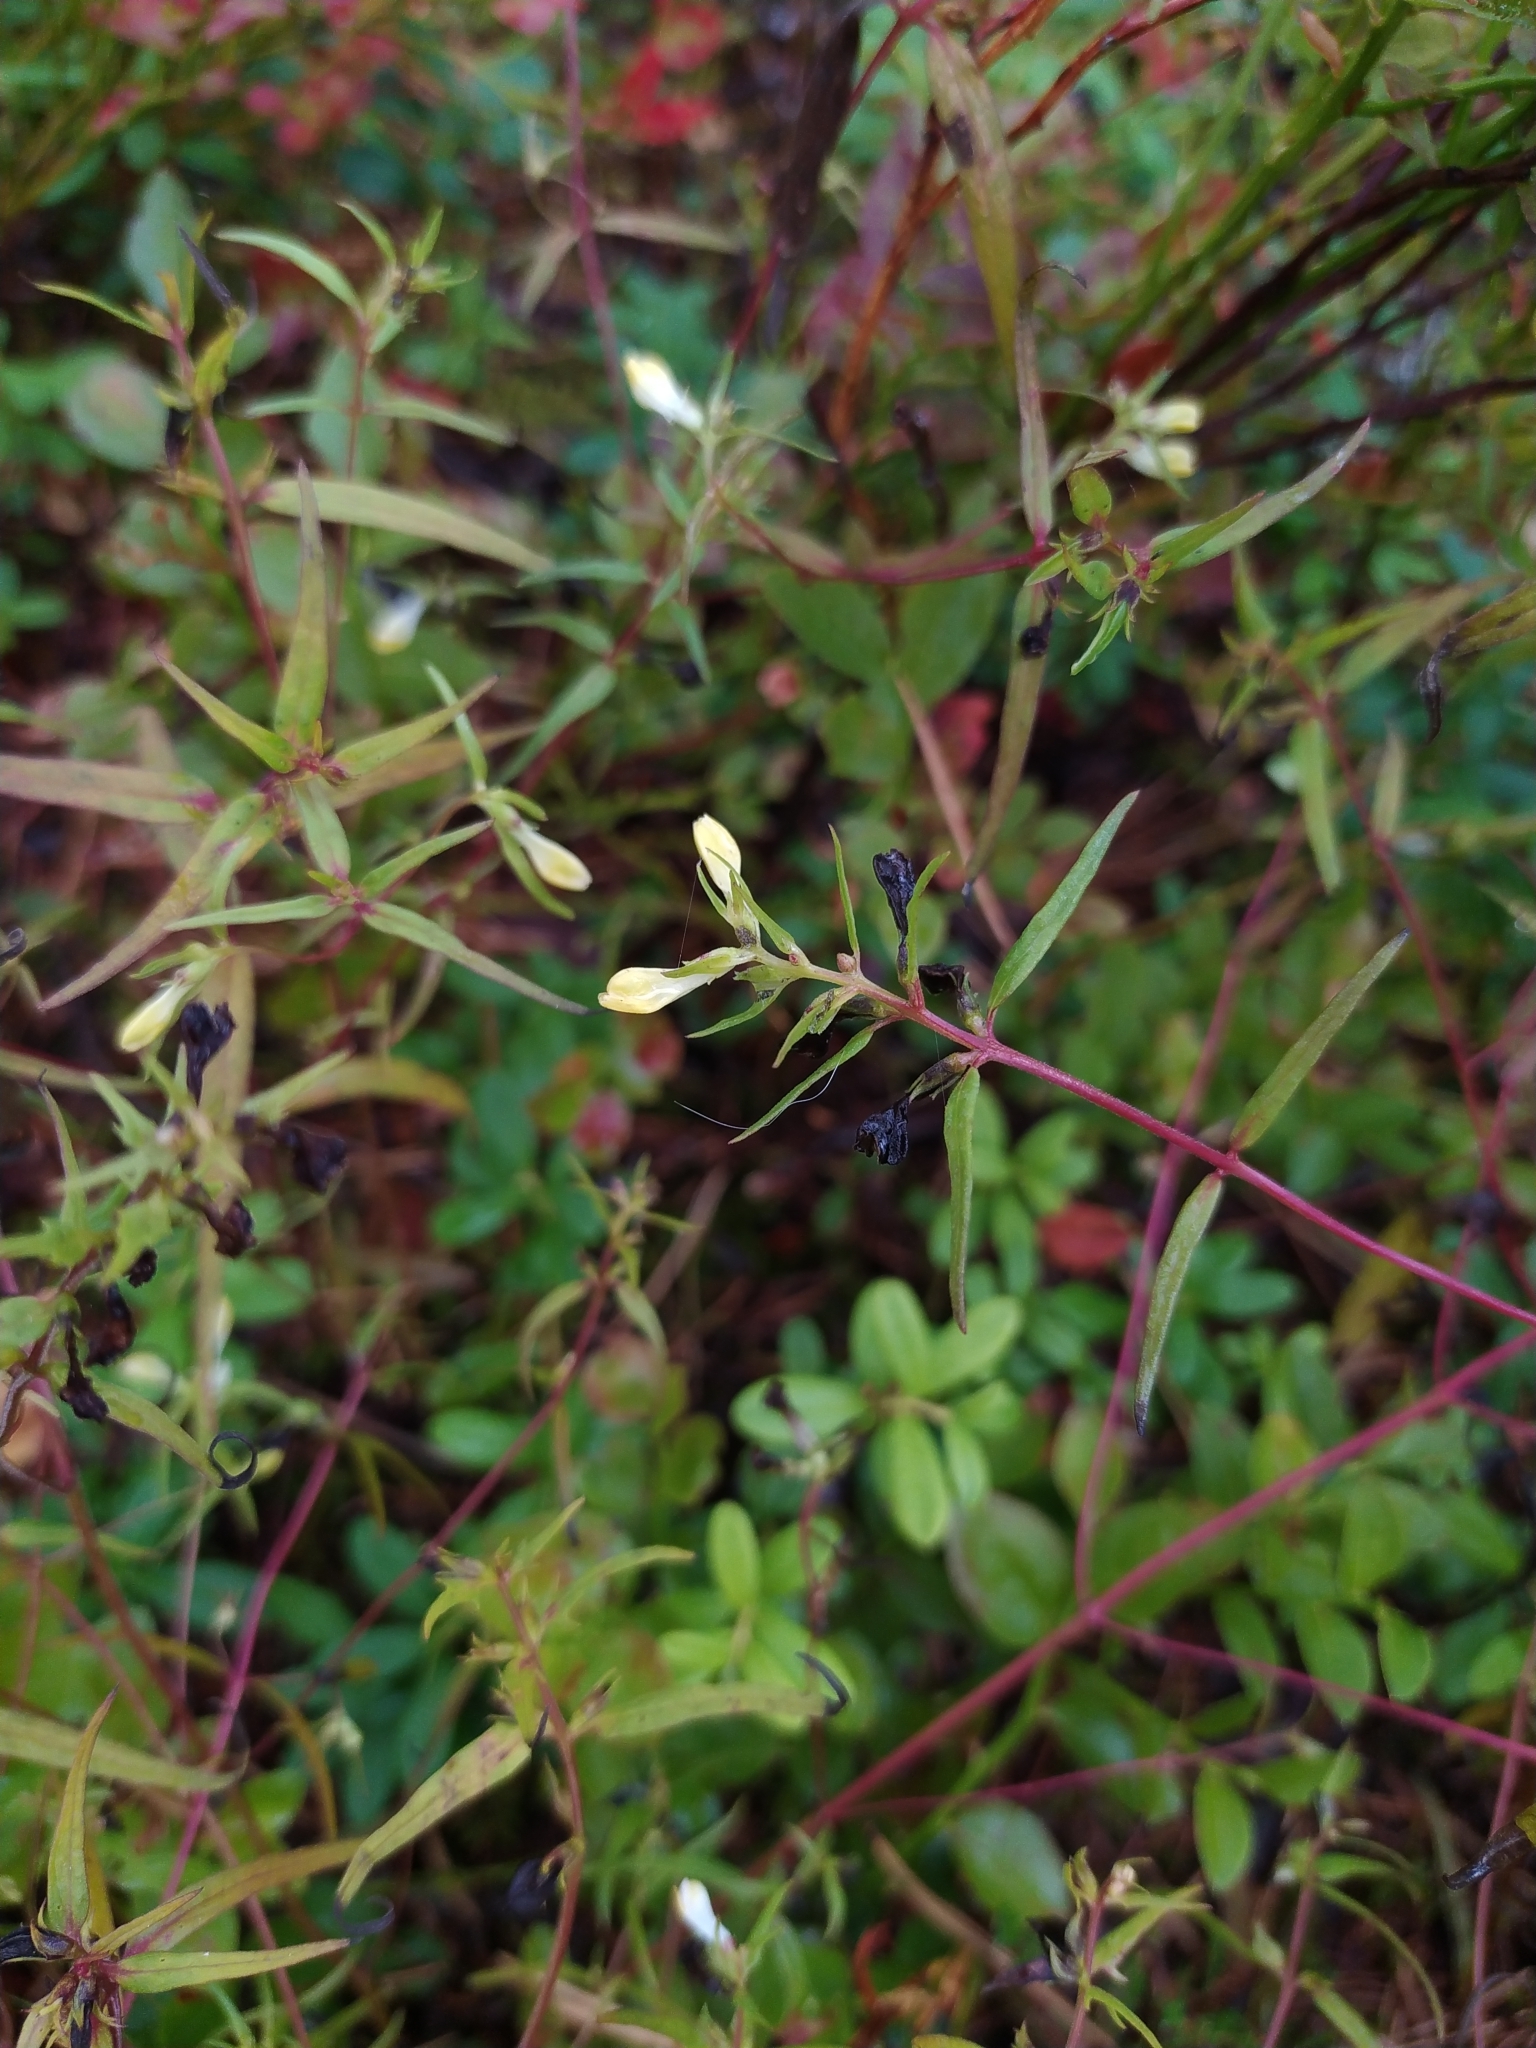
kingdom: Plantae
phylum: Tracheophyta
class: Magnoliopsida
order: Lamiales
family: Orobanchaceae
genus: Melampyrum
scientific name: Melampyrum pratense
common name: Common cow-wheat
